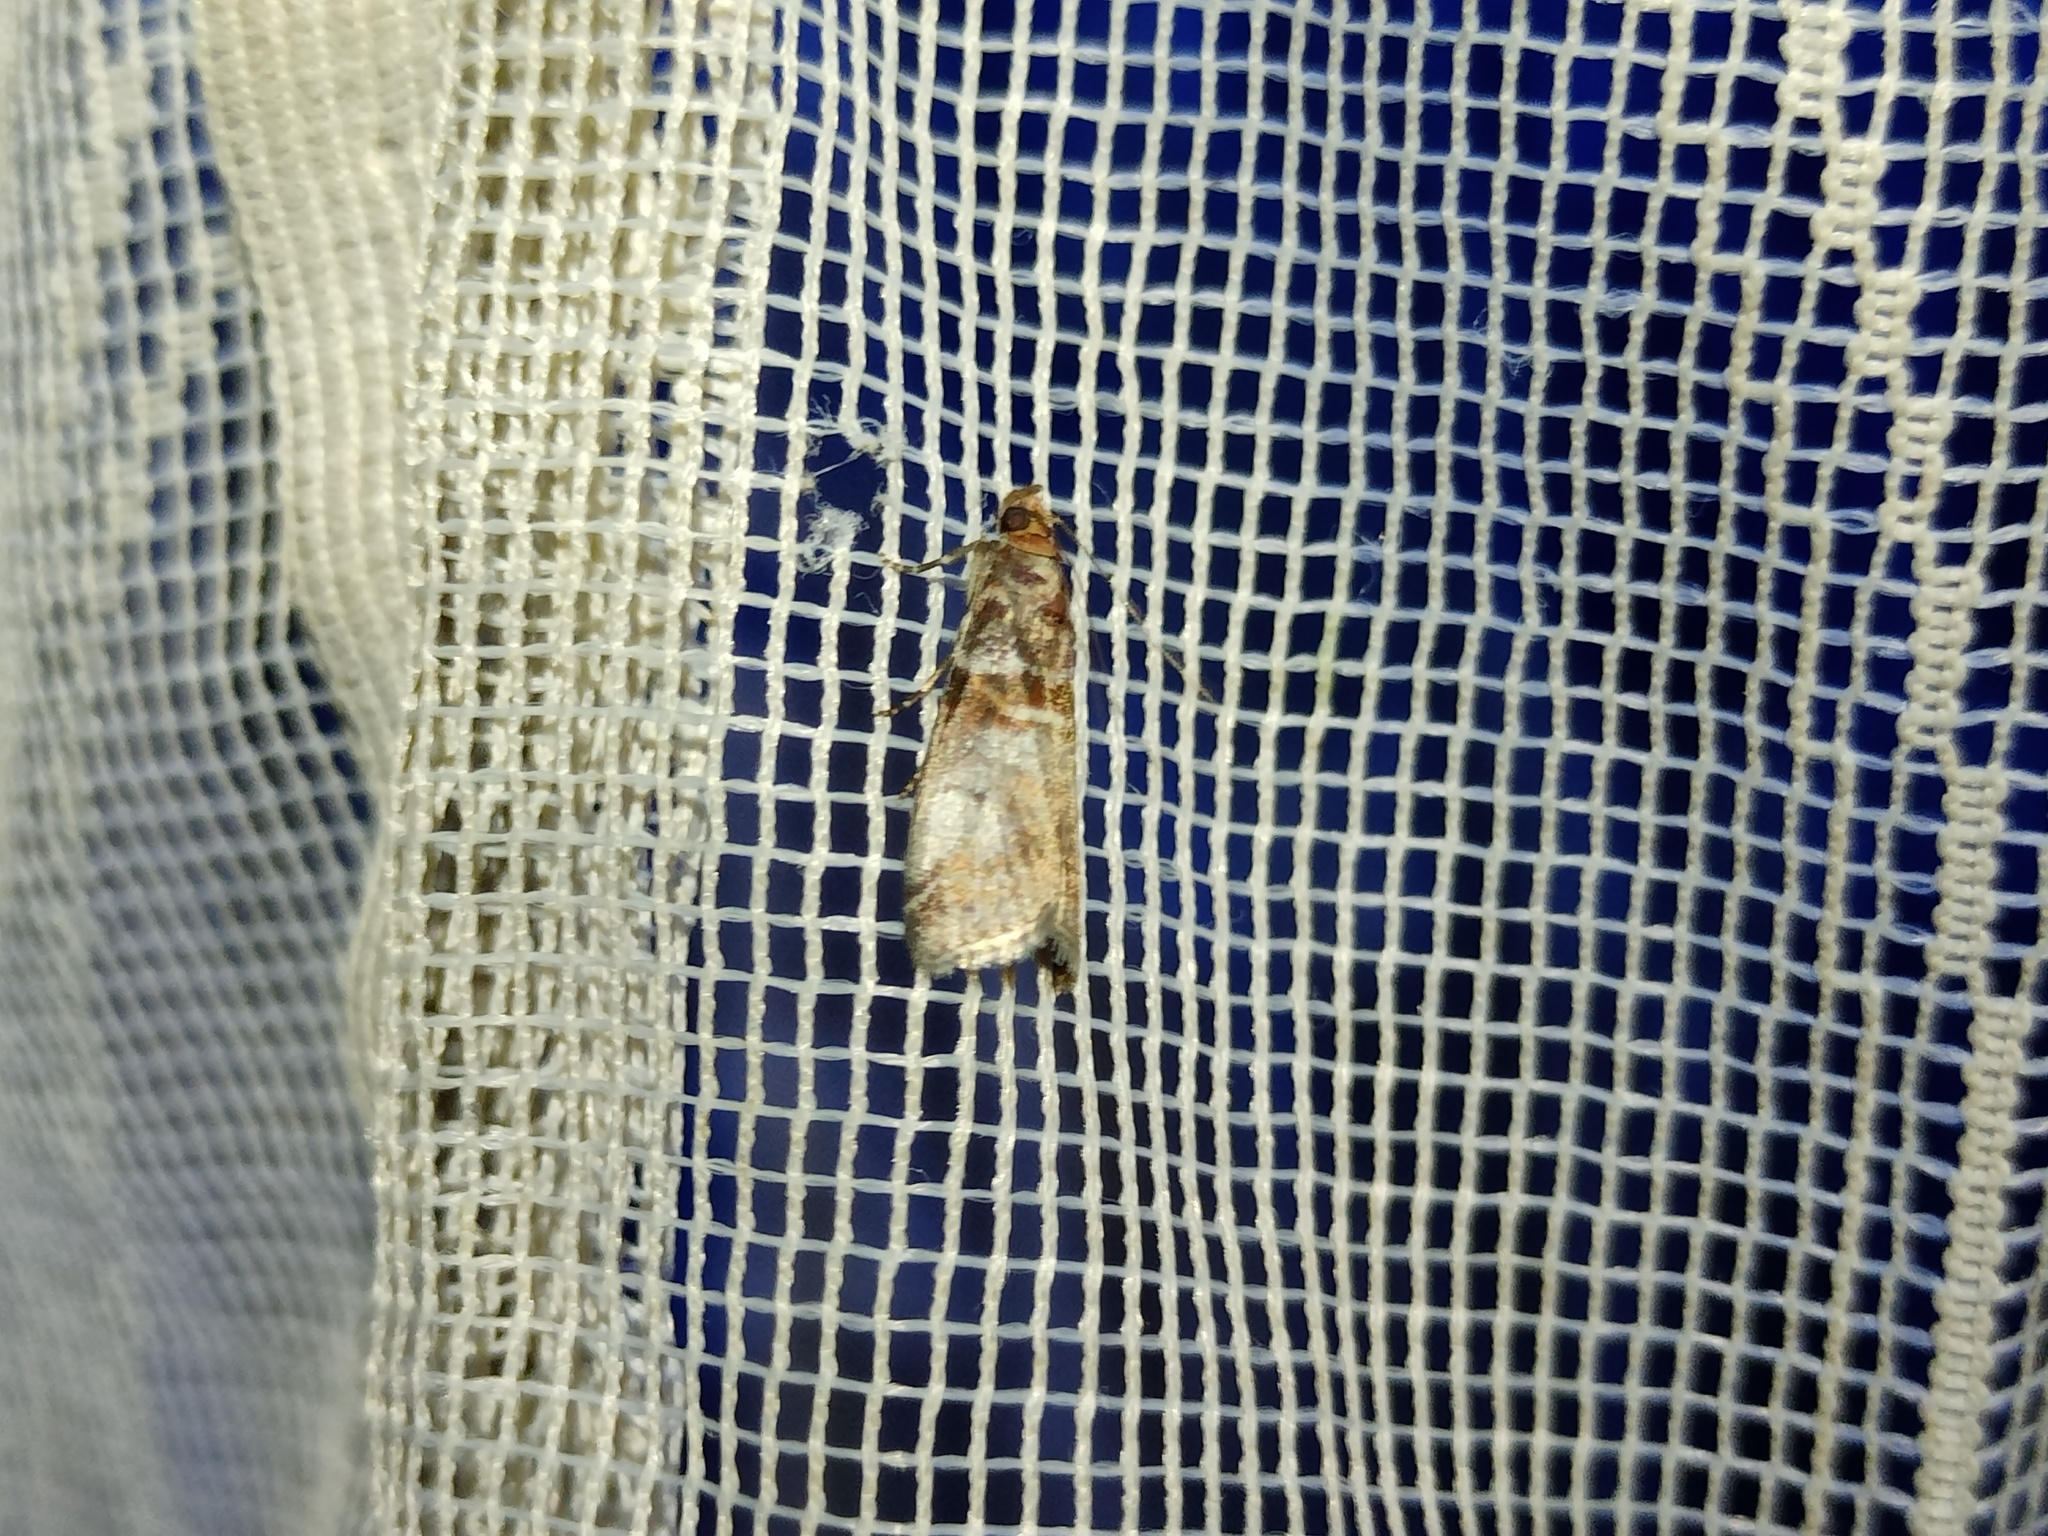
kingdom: Animalia
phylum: Arthropoda
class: Insecta
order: Lepidoptera
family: Pyralidae
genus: Acrobasis
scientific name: Acrobasis advenella
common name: Grey knot-horn
